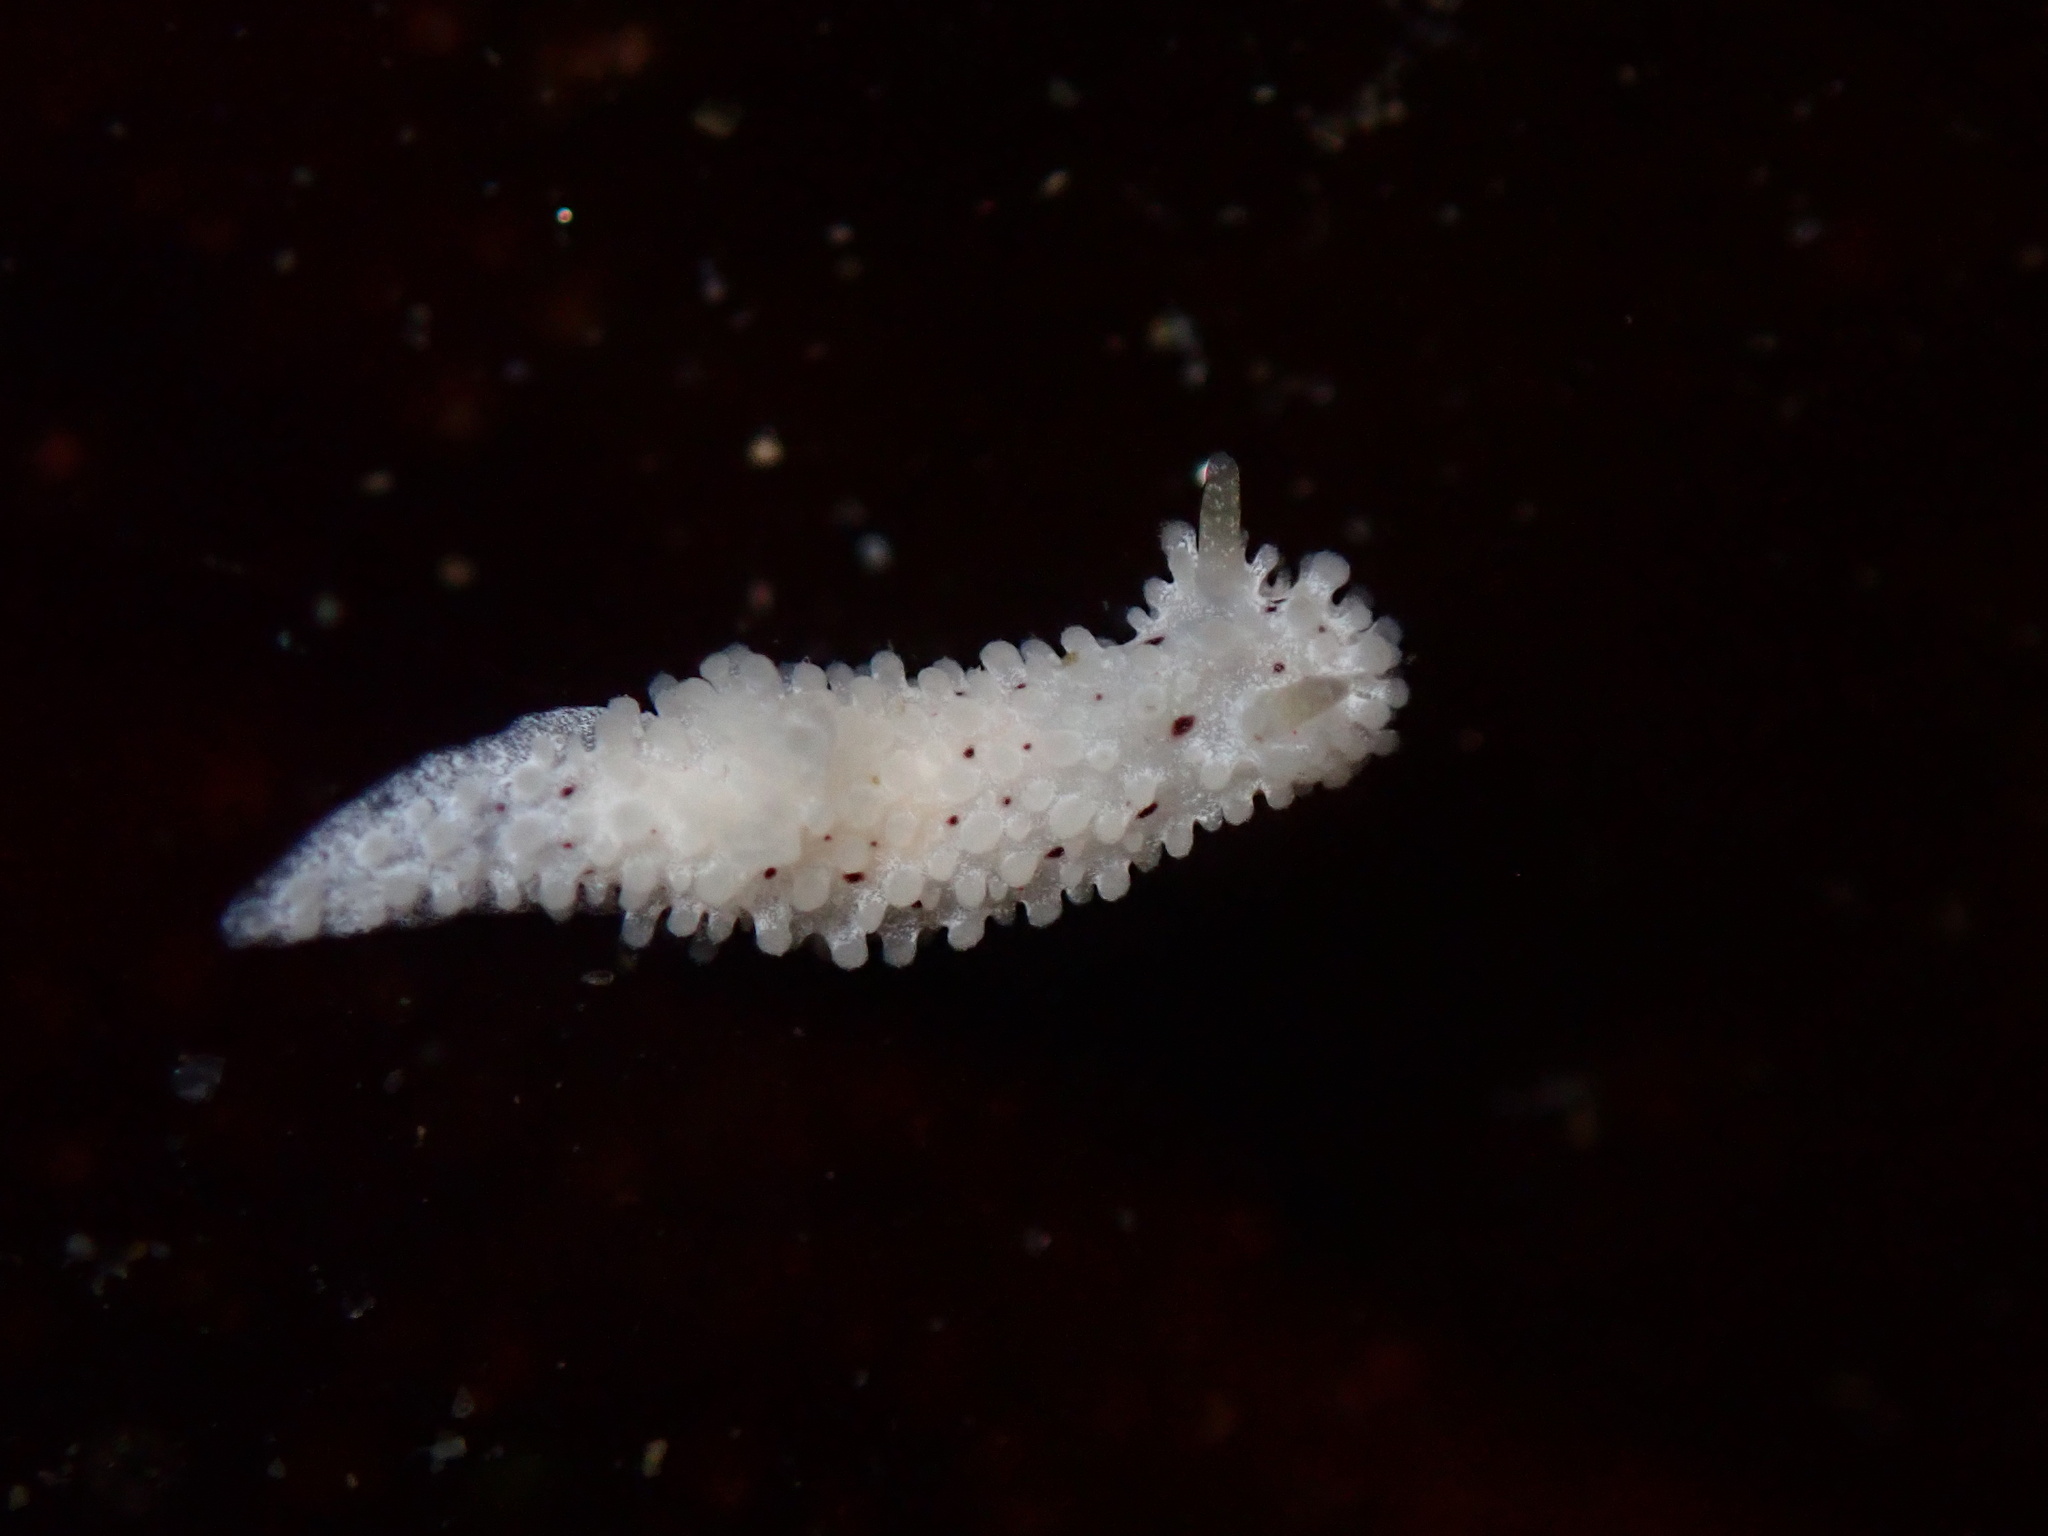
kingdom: Animalia
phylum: Mollusca
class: Gastropoda
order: Nudibranchia
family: Aegiridae
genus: Aegires
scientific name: Aegires albopunctatus
